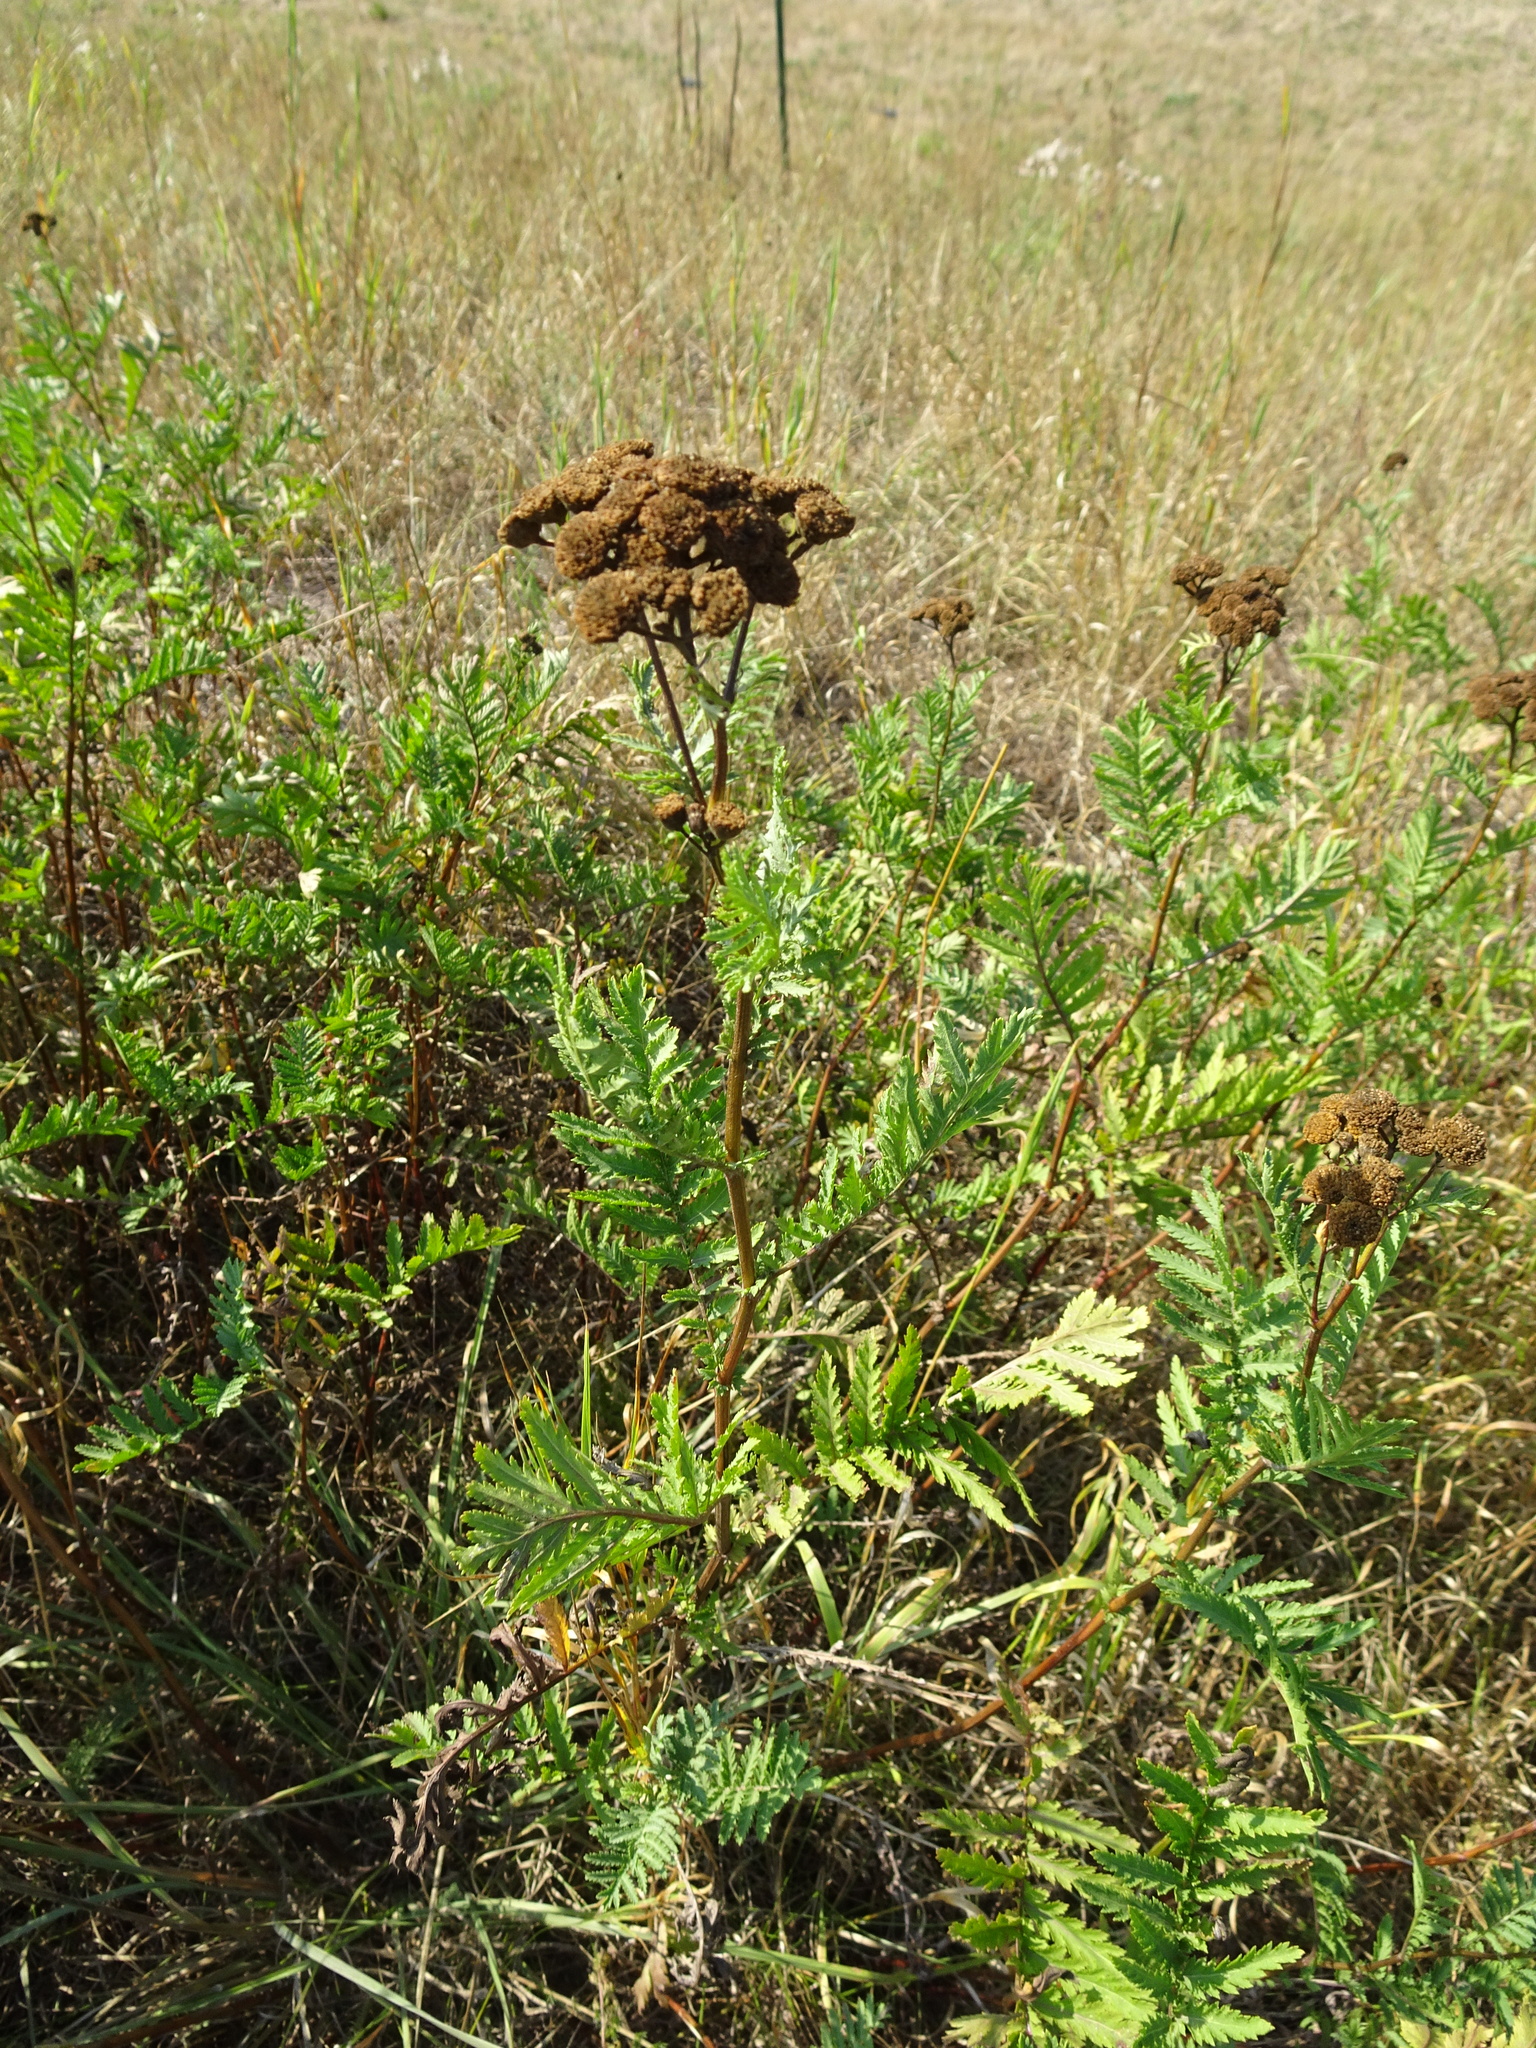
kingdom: Plantae
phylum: Tracheophyta
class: Magnoliopsida
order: Asterales
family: Asteraceae
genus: Tanacetum
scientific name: Tanacetum vulgare
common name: Common tansy
